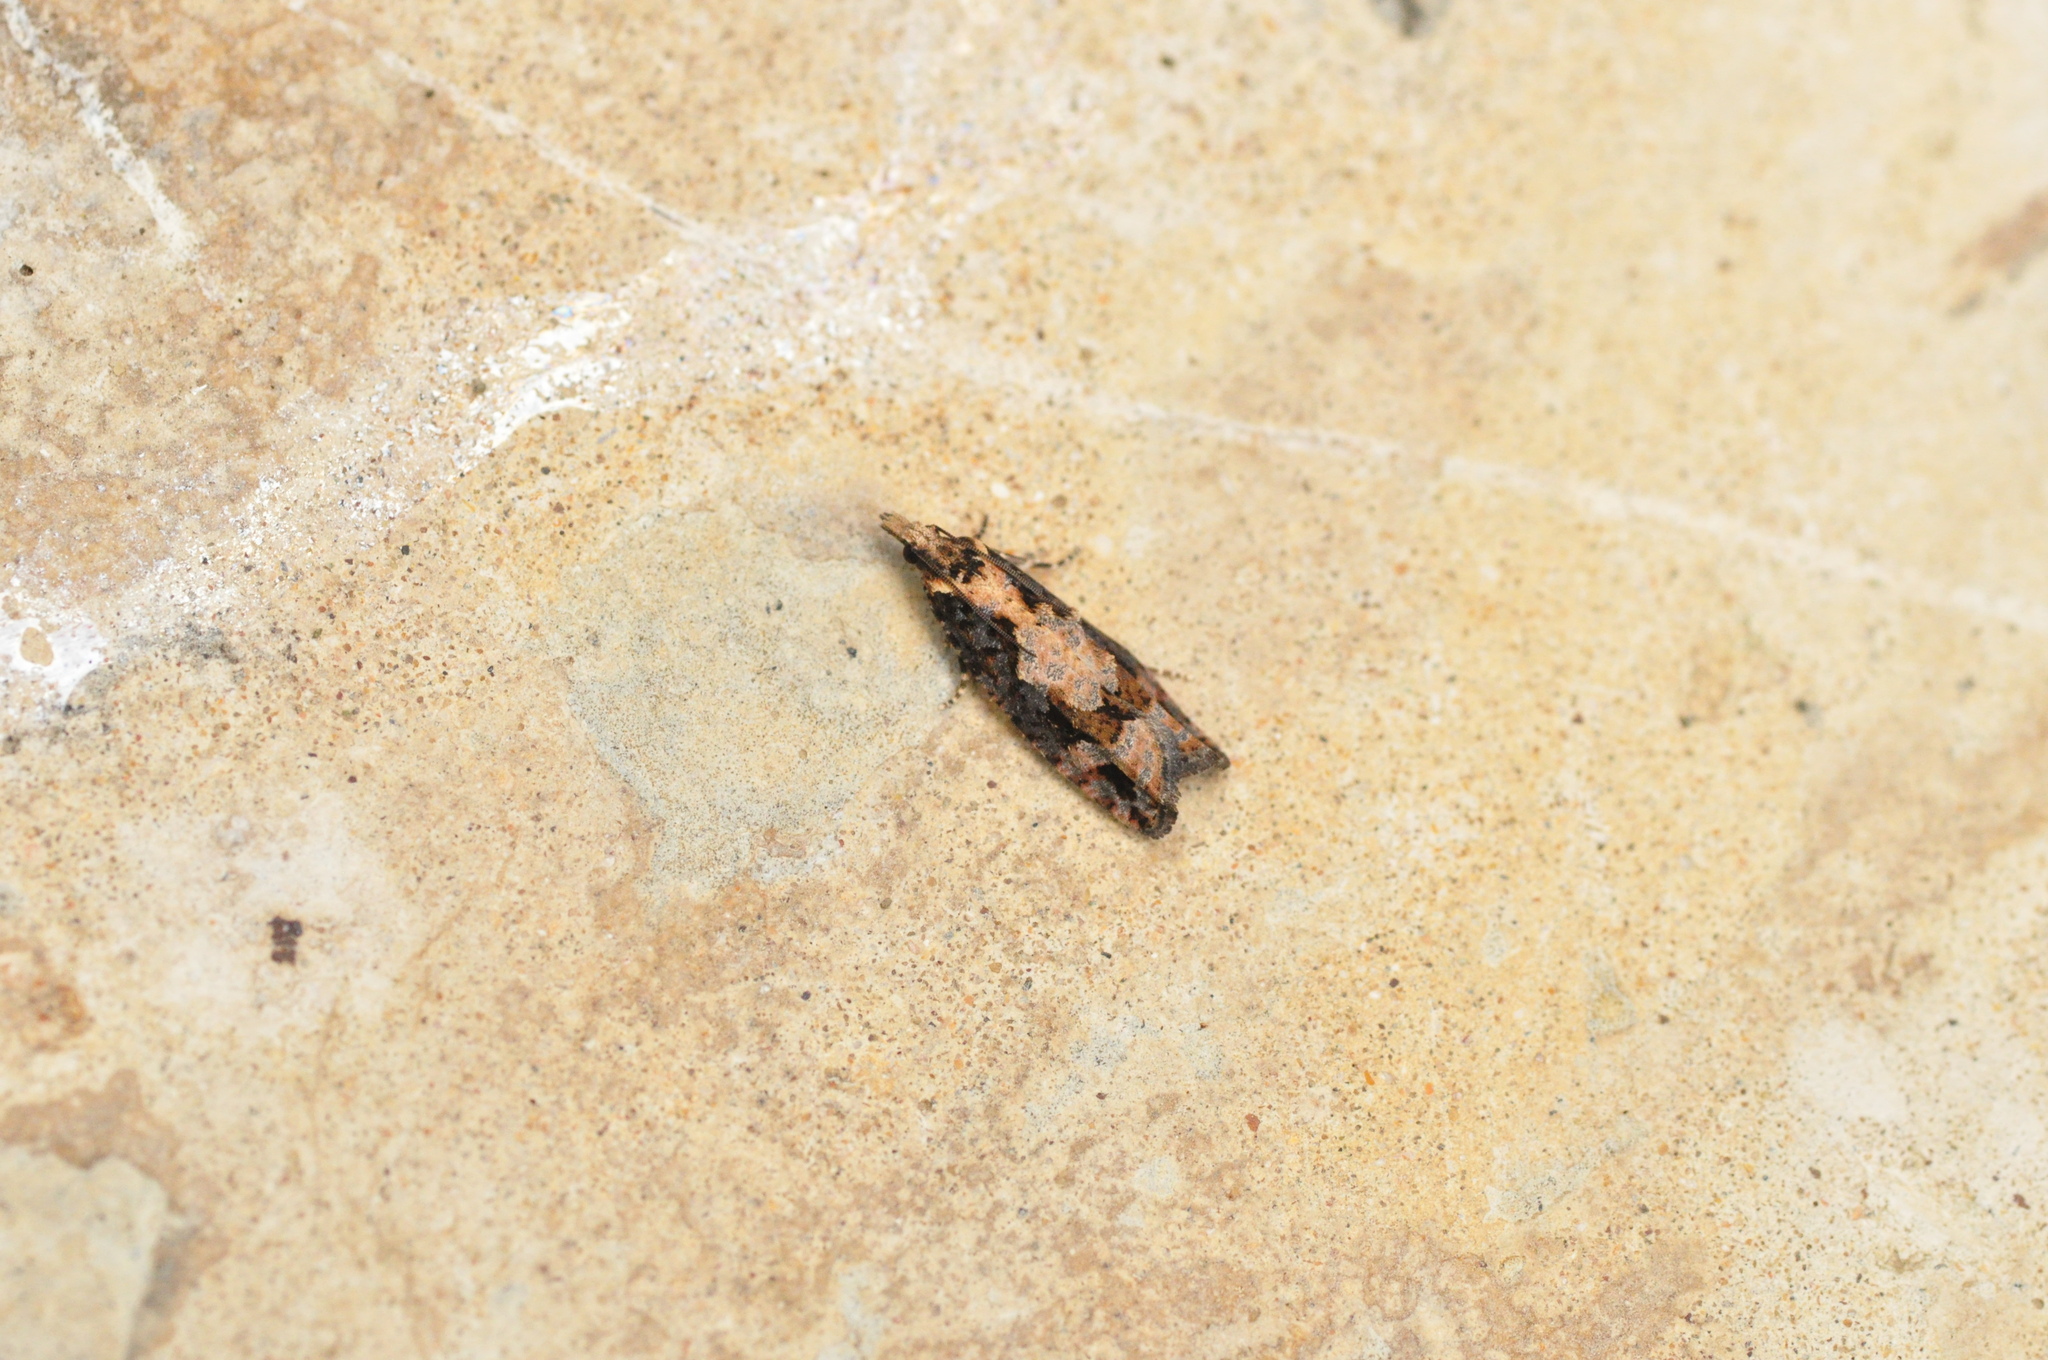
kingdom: Animalia
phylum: Arthropoda
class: Insecta
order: Lepidoptera
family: Tortricidae
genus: Acroclita
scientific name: Acroclita sonchana
